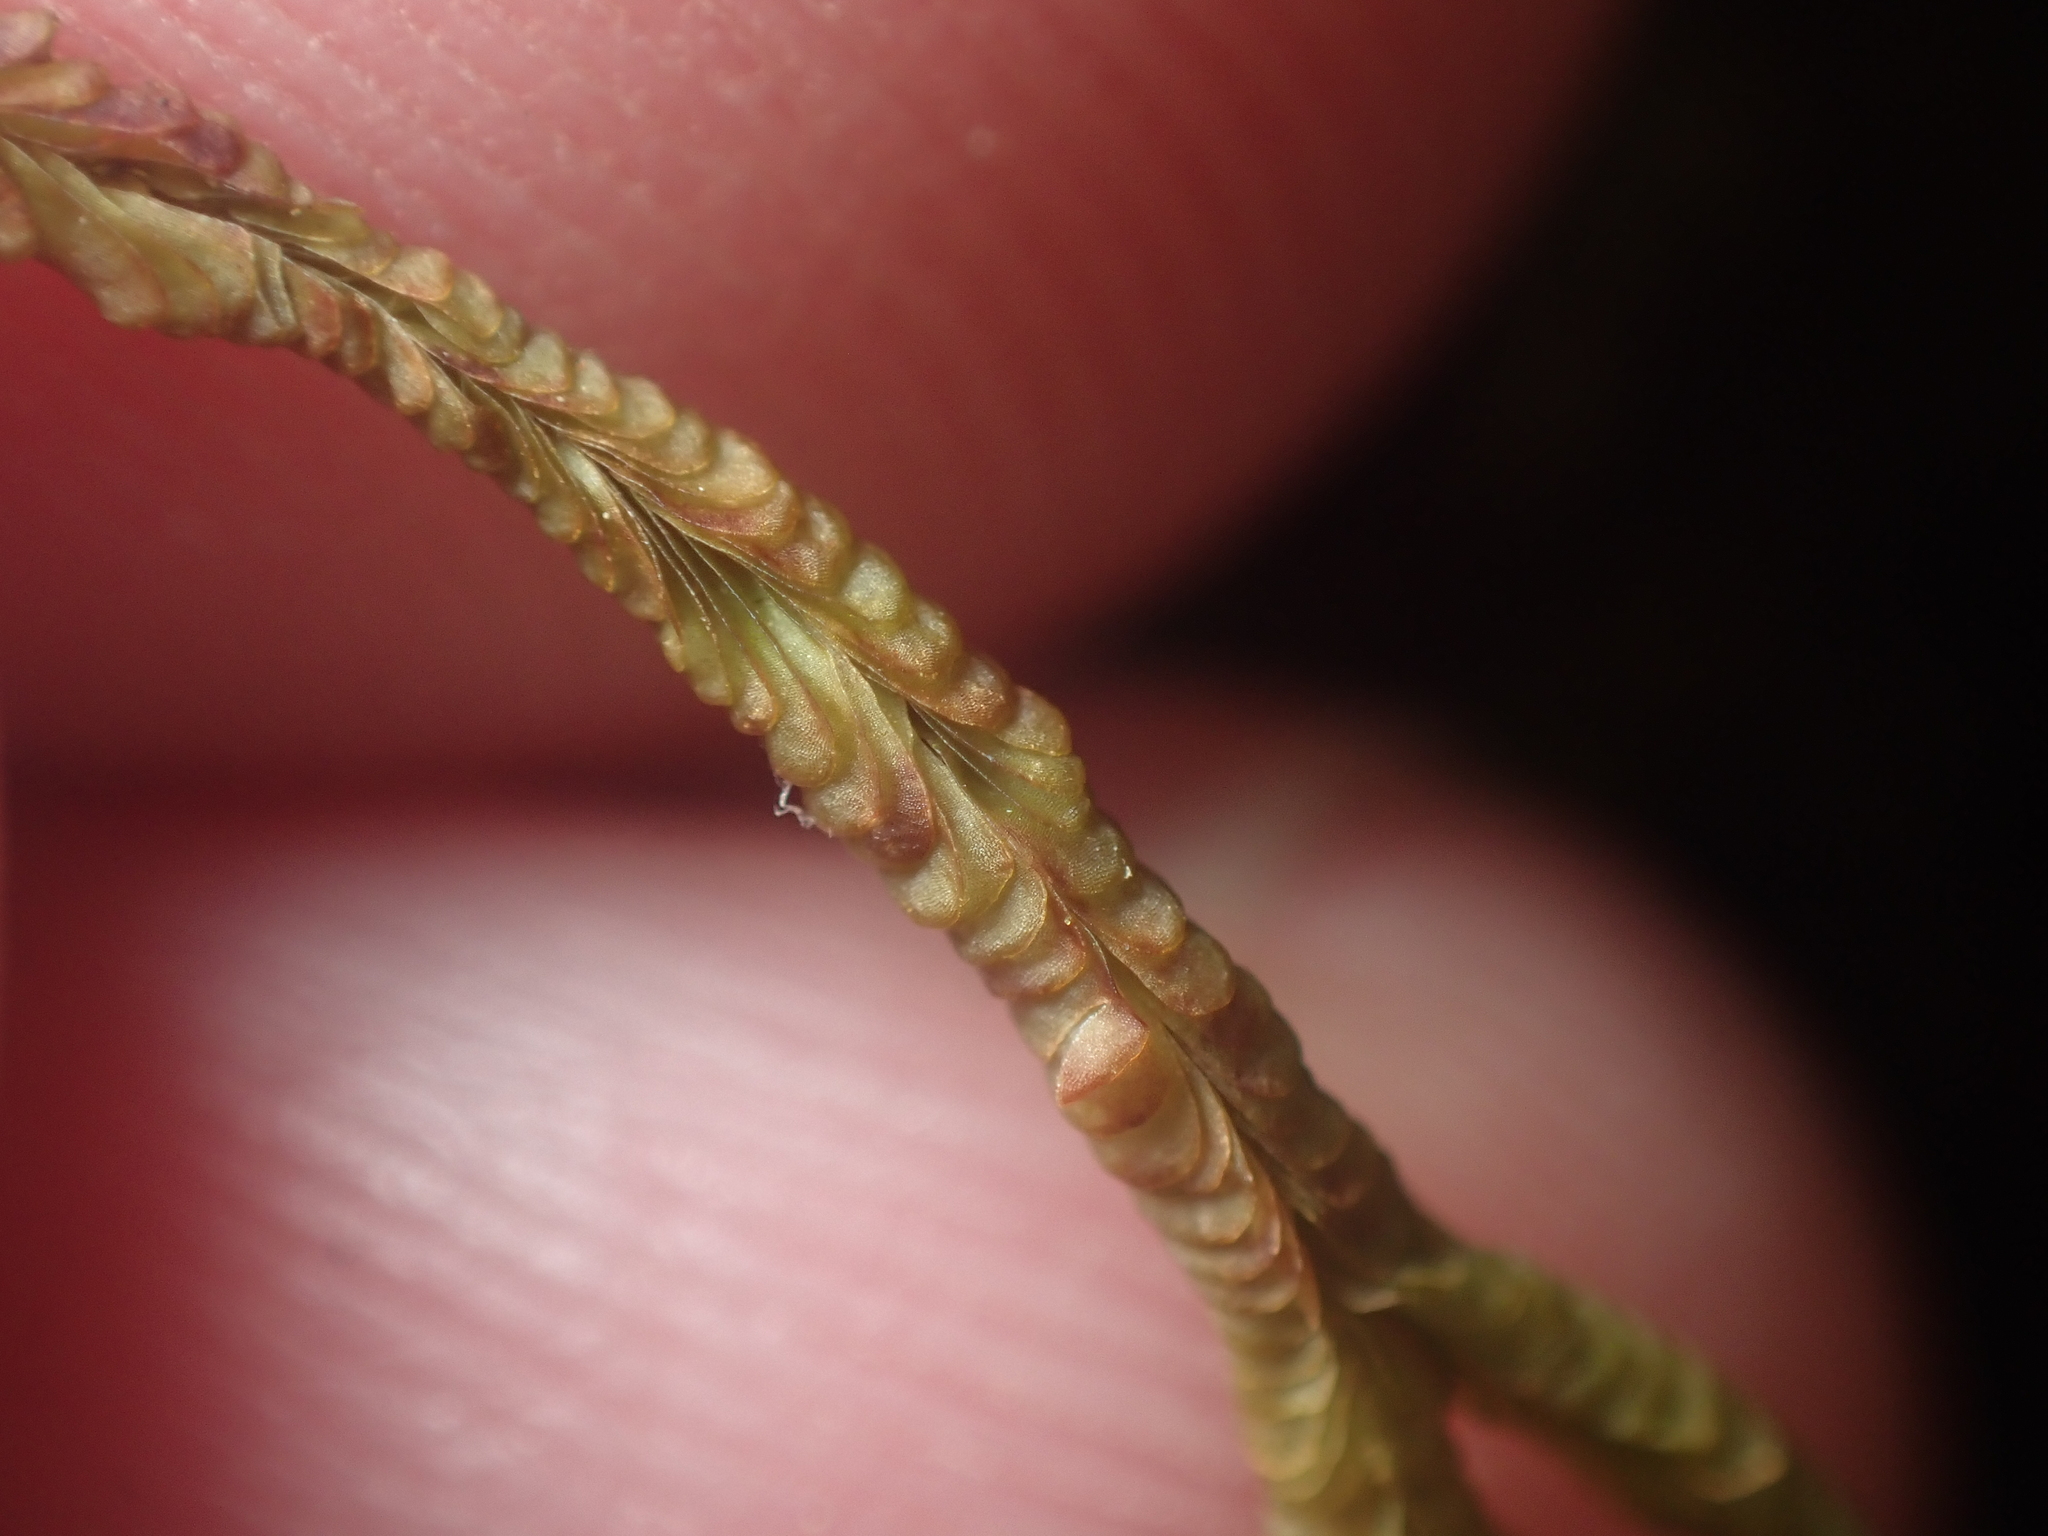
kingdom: Plantae
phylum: Marchantiophyta
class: Jungermanniopsida
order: Jungermanniales
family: Adelanthaceae
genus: Cuspidatula
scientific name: Cuspidatula kirkii
